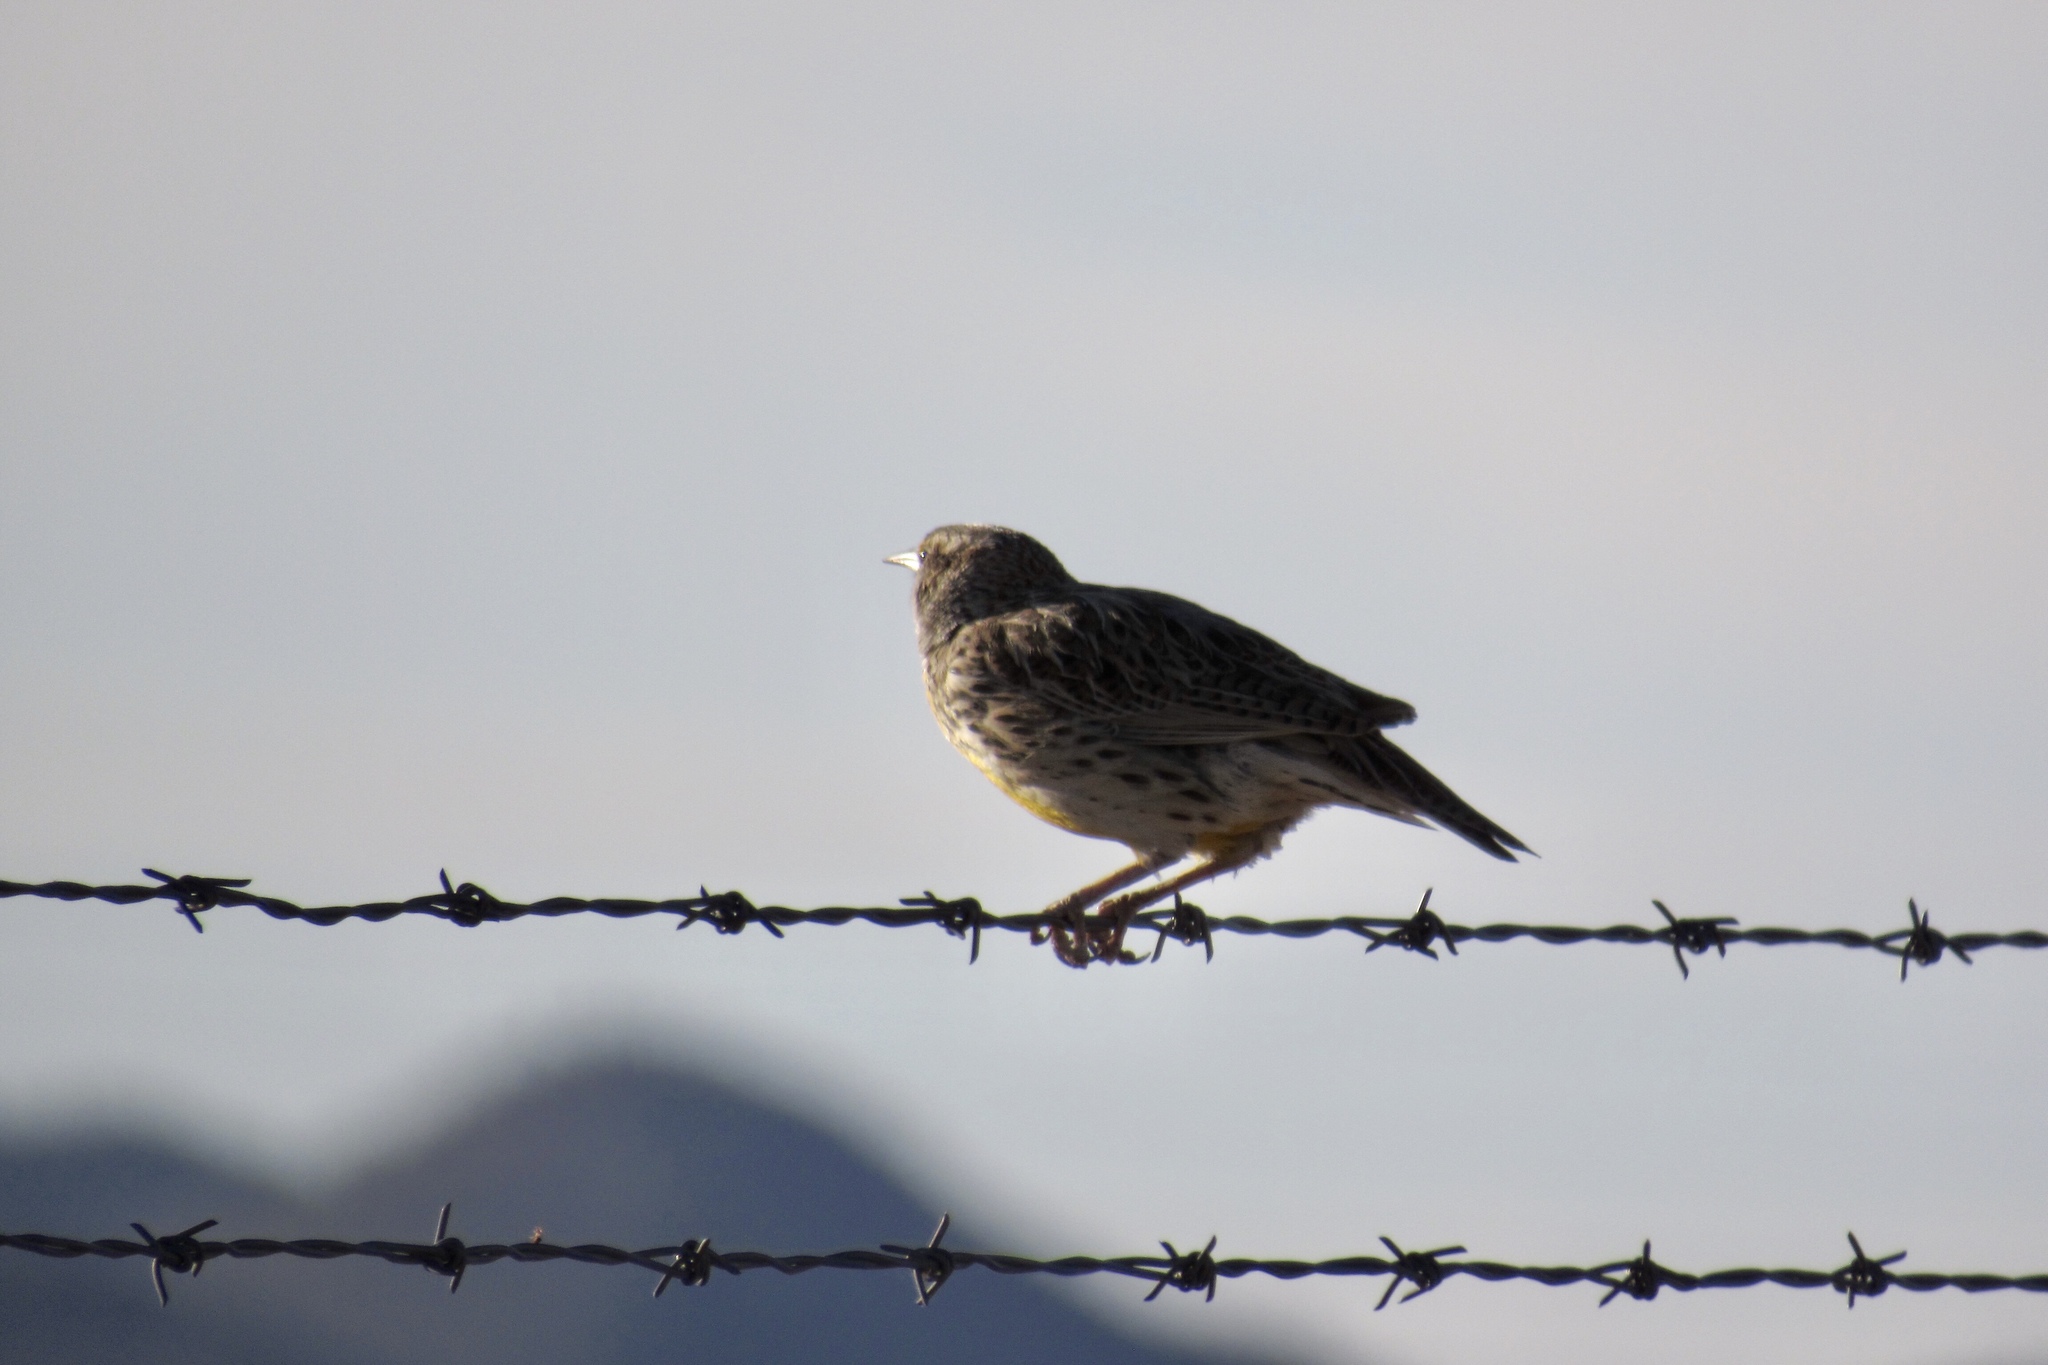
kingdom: Animalia
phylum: Chordata
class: Aves
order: Passeriformes
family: Icteridae
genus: Sturnella
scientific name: Sturnella
